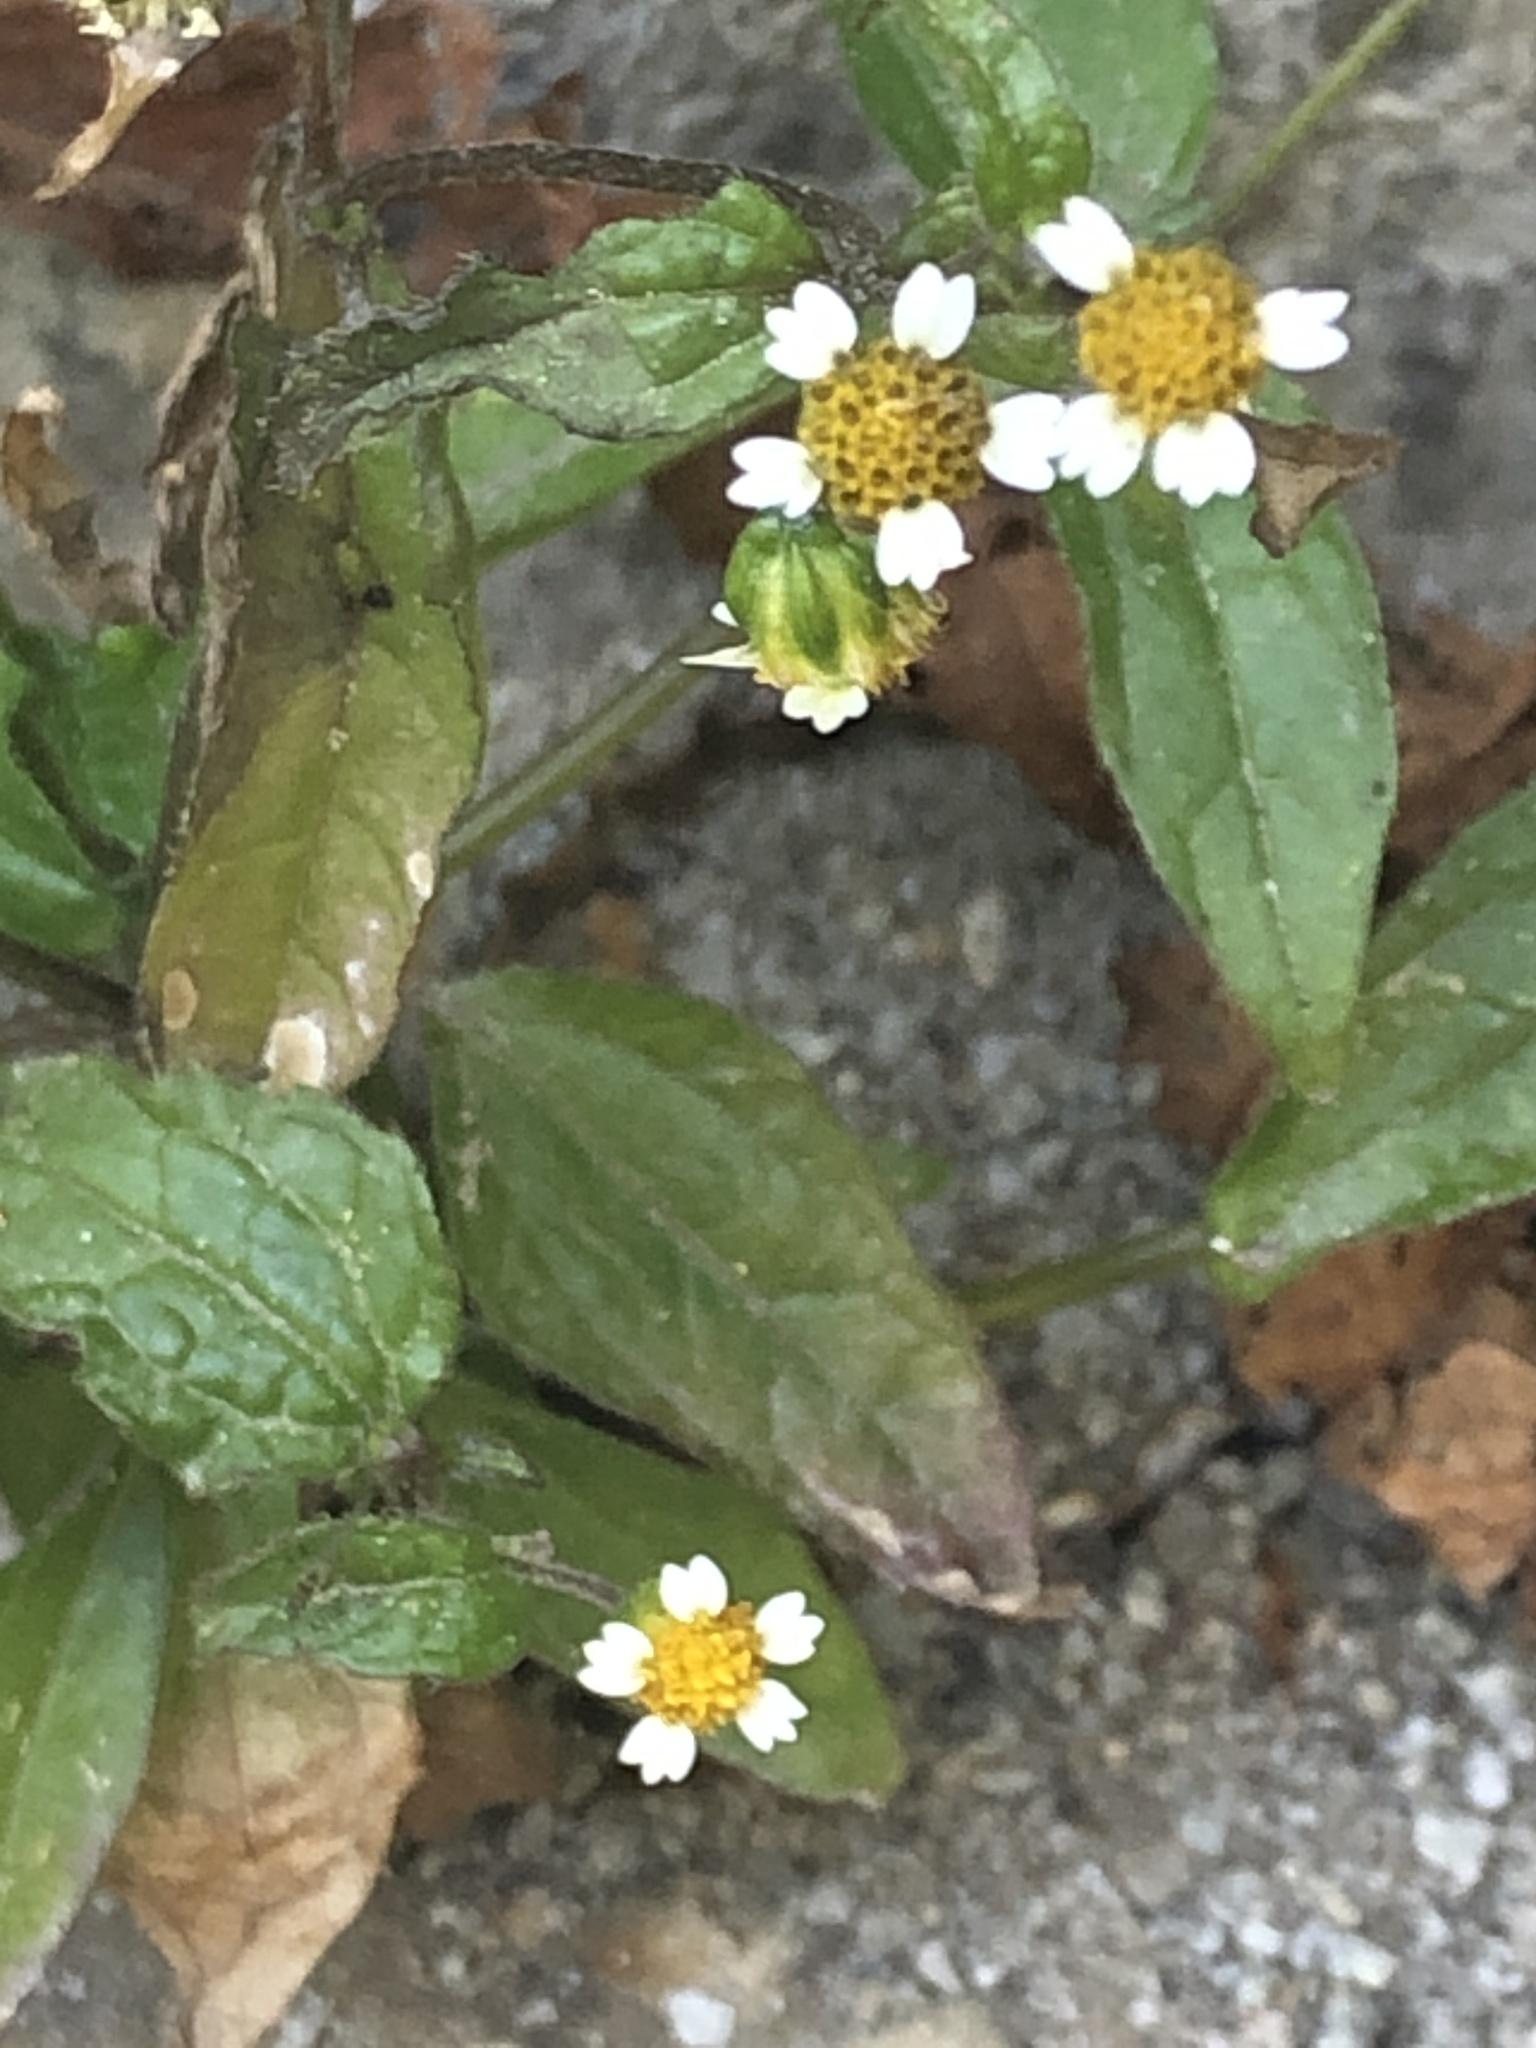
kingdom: Plantae
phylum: Tracheophyta
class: Magnoliopsida
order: Asterales
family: Asteraceae
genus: Galinsoga
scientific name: Galinsoga quadriradiata
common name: Shaggy soldier
